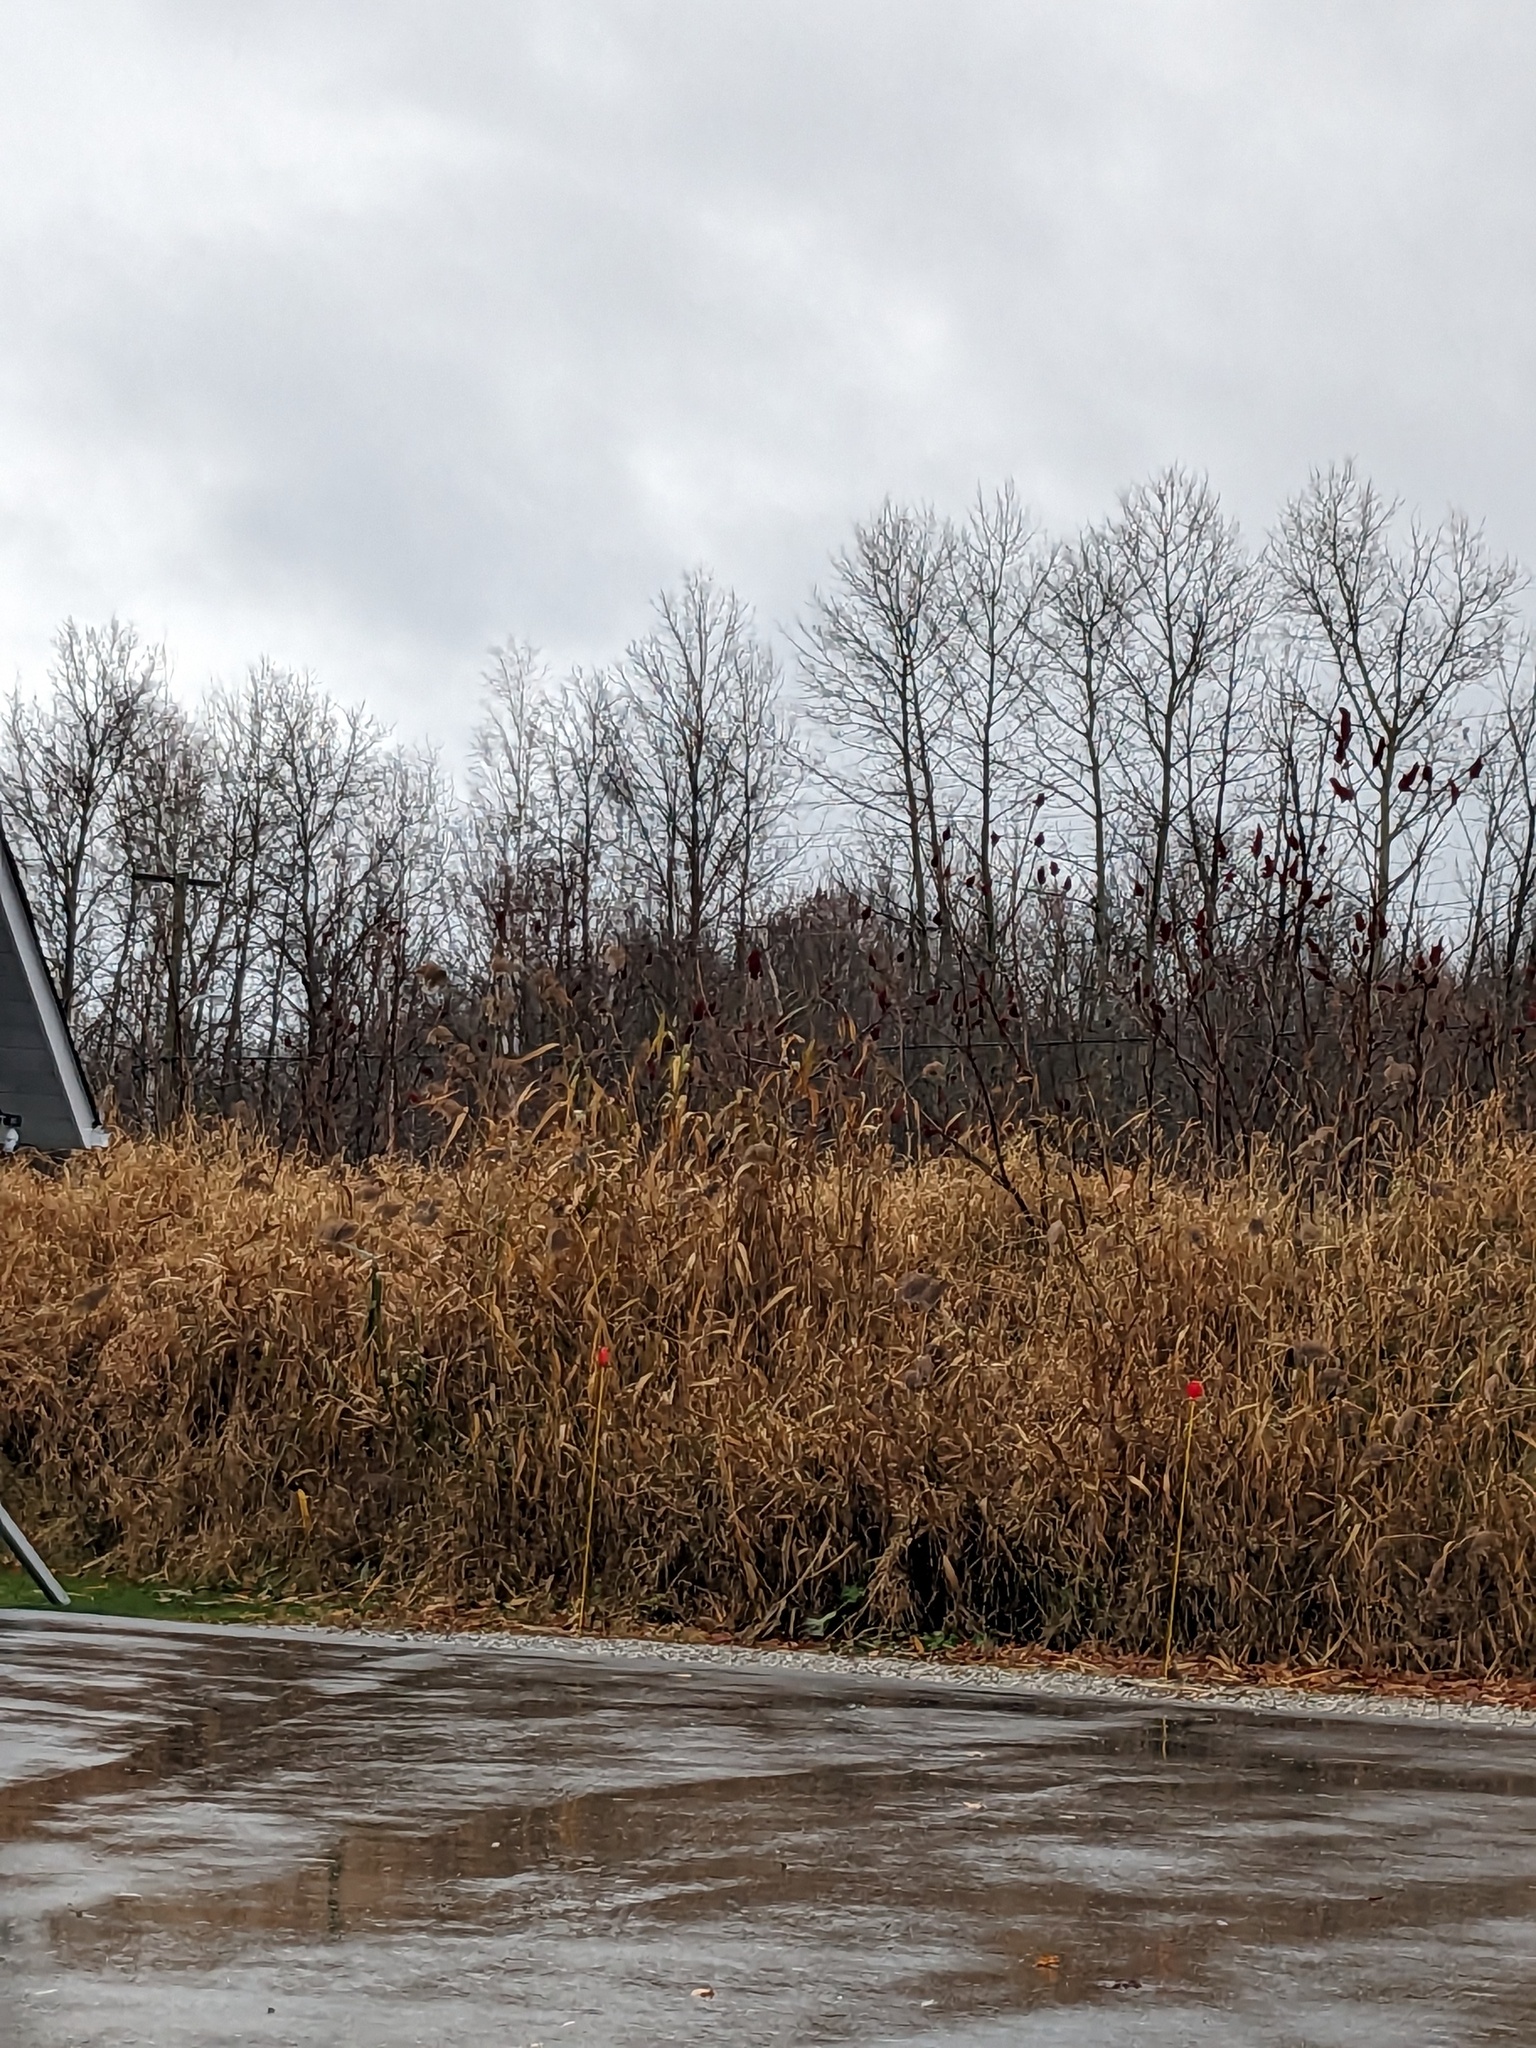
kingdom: Plantae
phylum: Tracheophyta
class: Liliopsida
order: Poales
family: Poaceae
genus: Phragmites
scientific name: Phragmites australis
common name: Common reed
